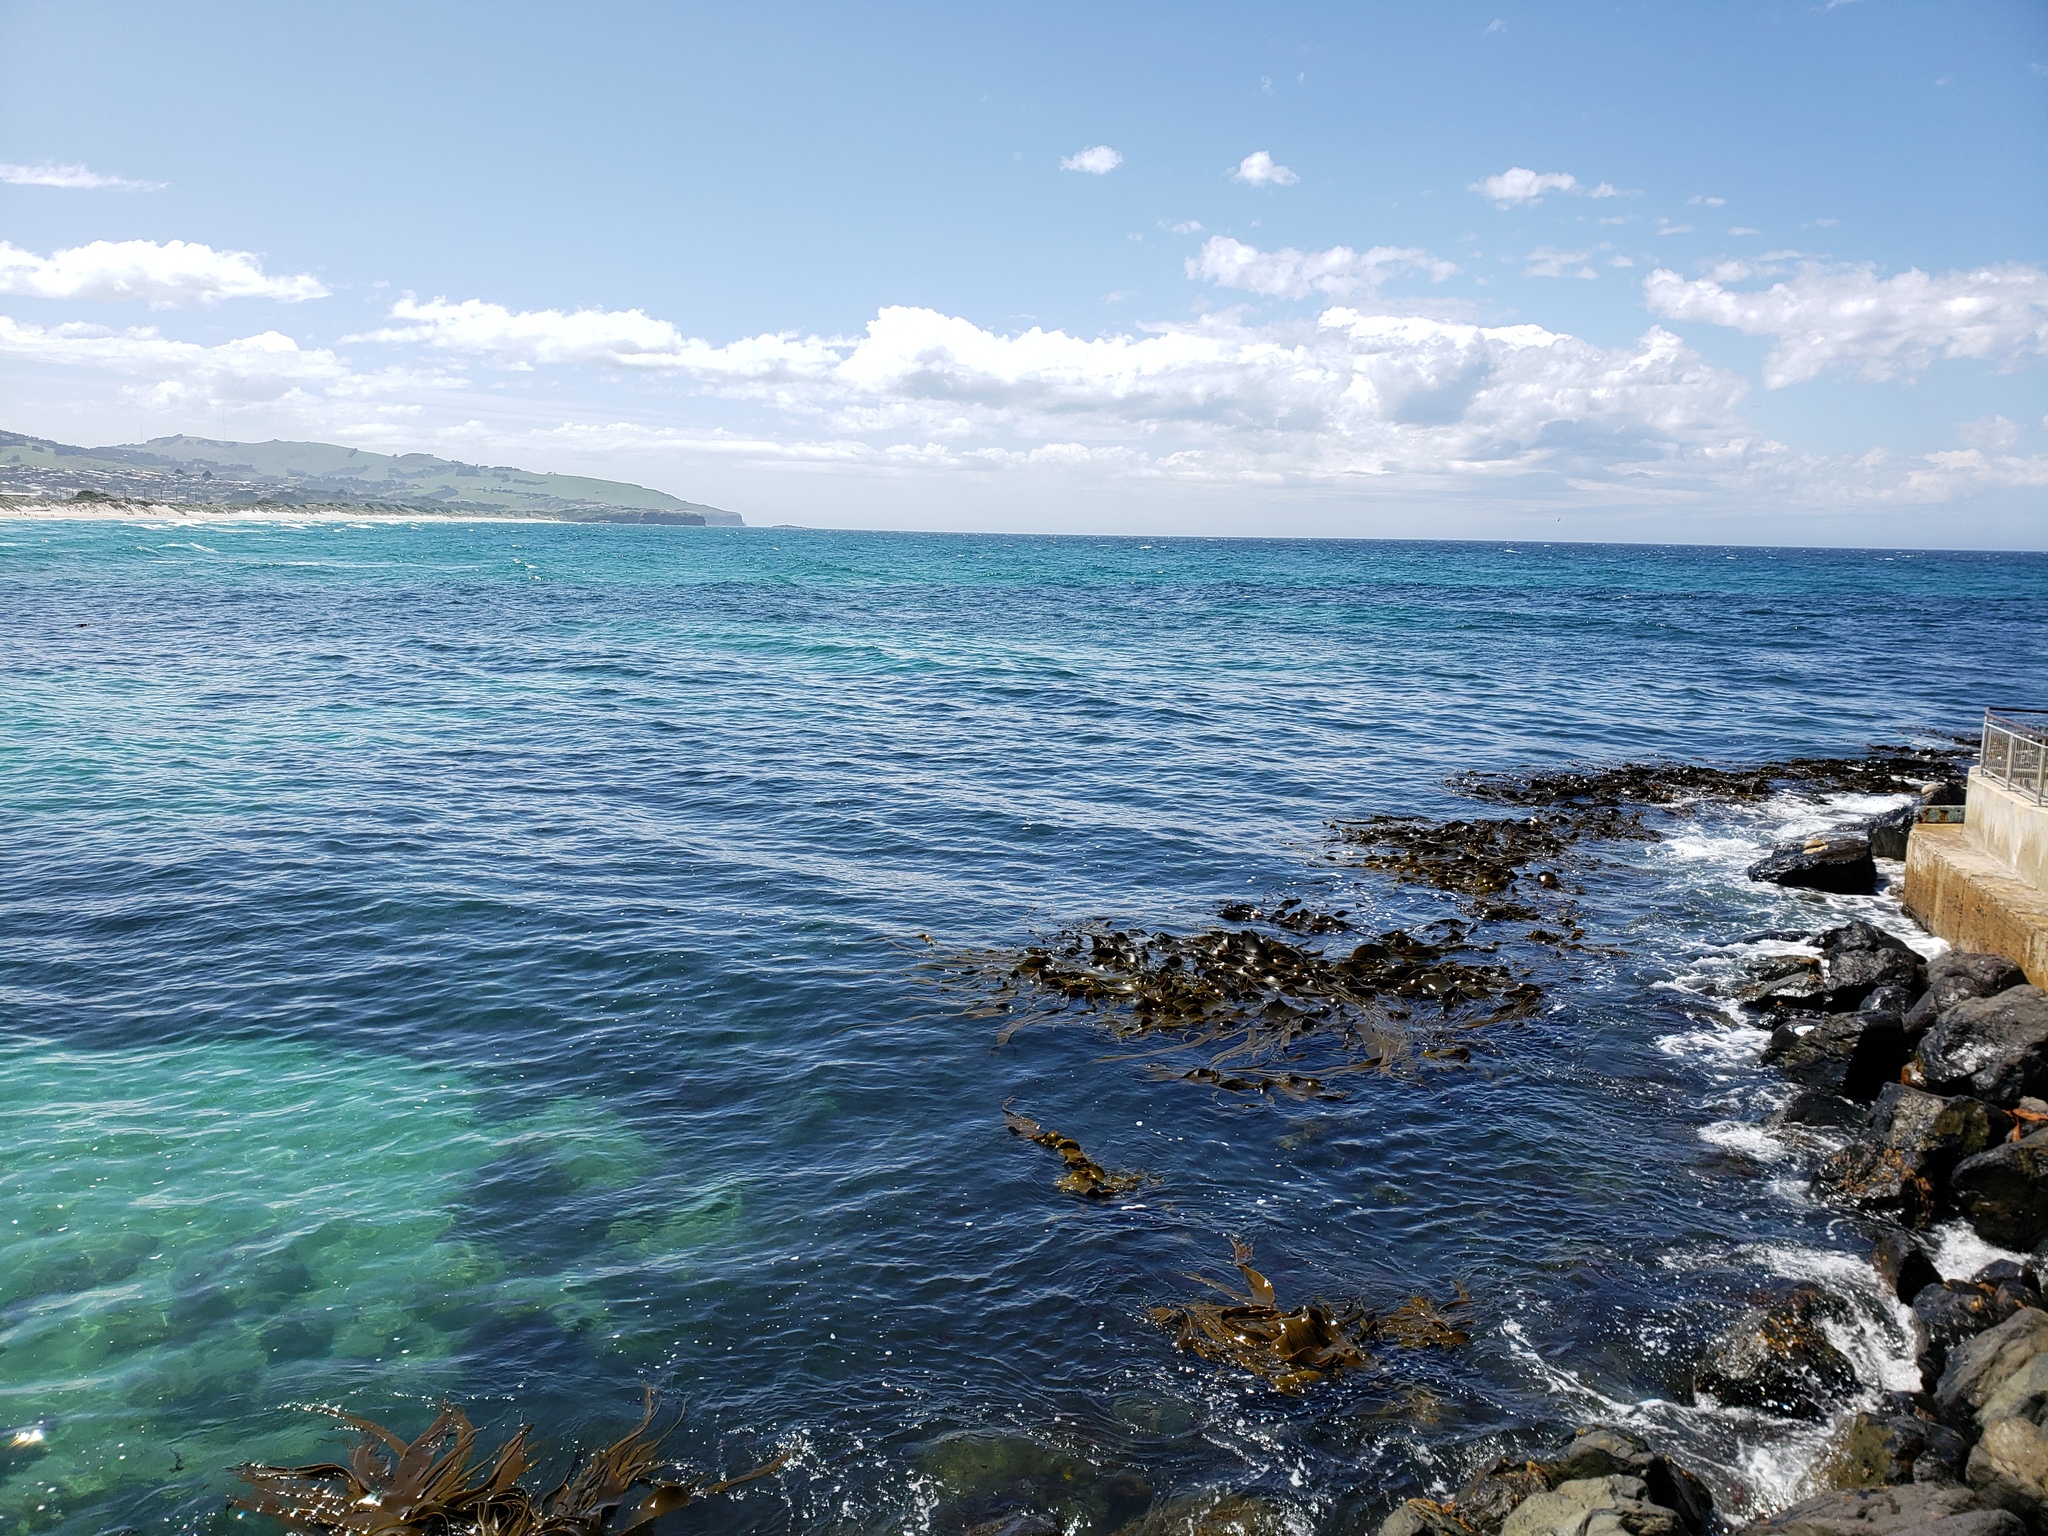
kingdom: Chromista
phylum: Ochrophyta
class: Phaeophyceae
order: Fucales
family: Durvillaeaceae
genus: Durvillaea
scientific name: Durvillaea antarctica
